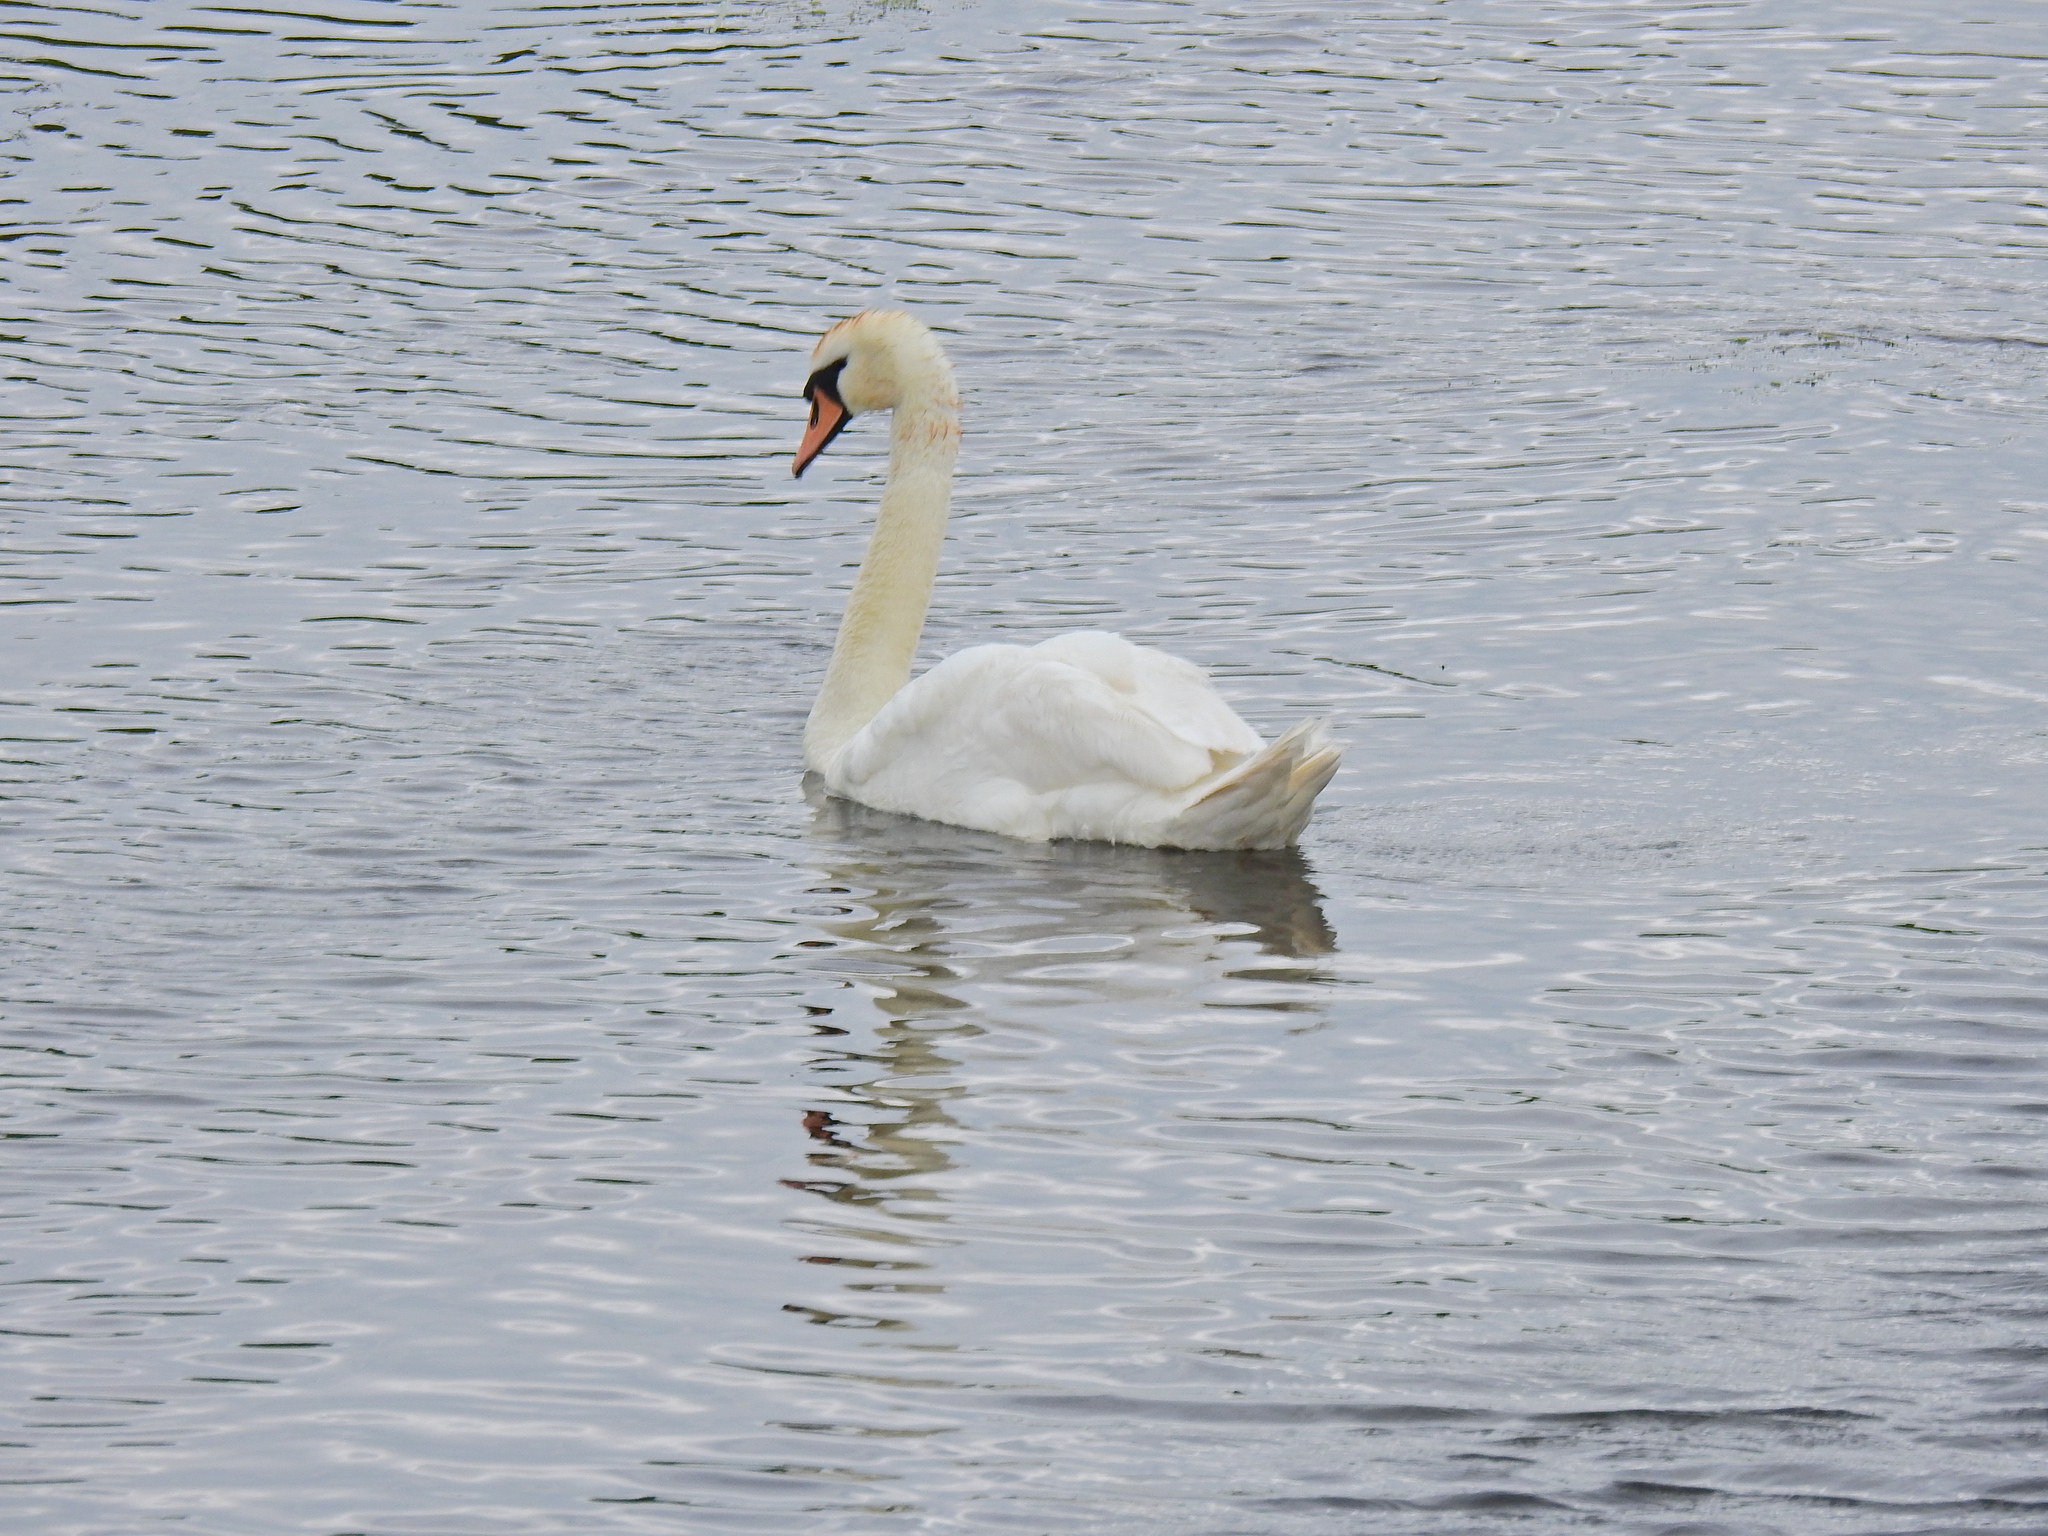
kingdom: Animalia
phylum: Chordata
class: Aves
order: Anseriformes
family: Anatidae
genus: Cygnus
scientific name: Cygnus olor
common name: Mute swan
